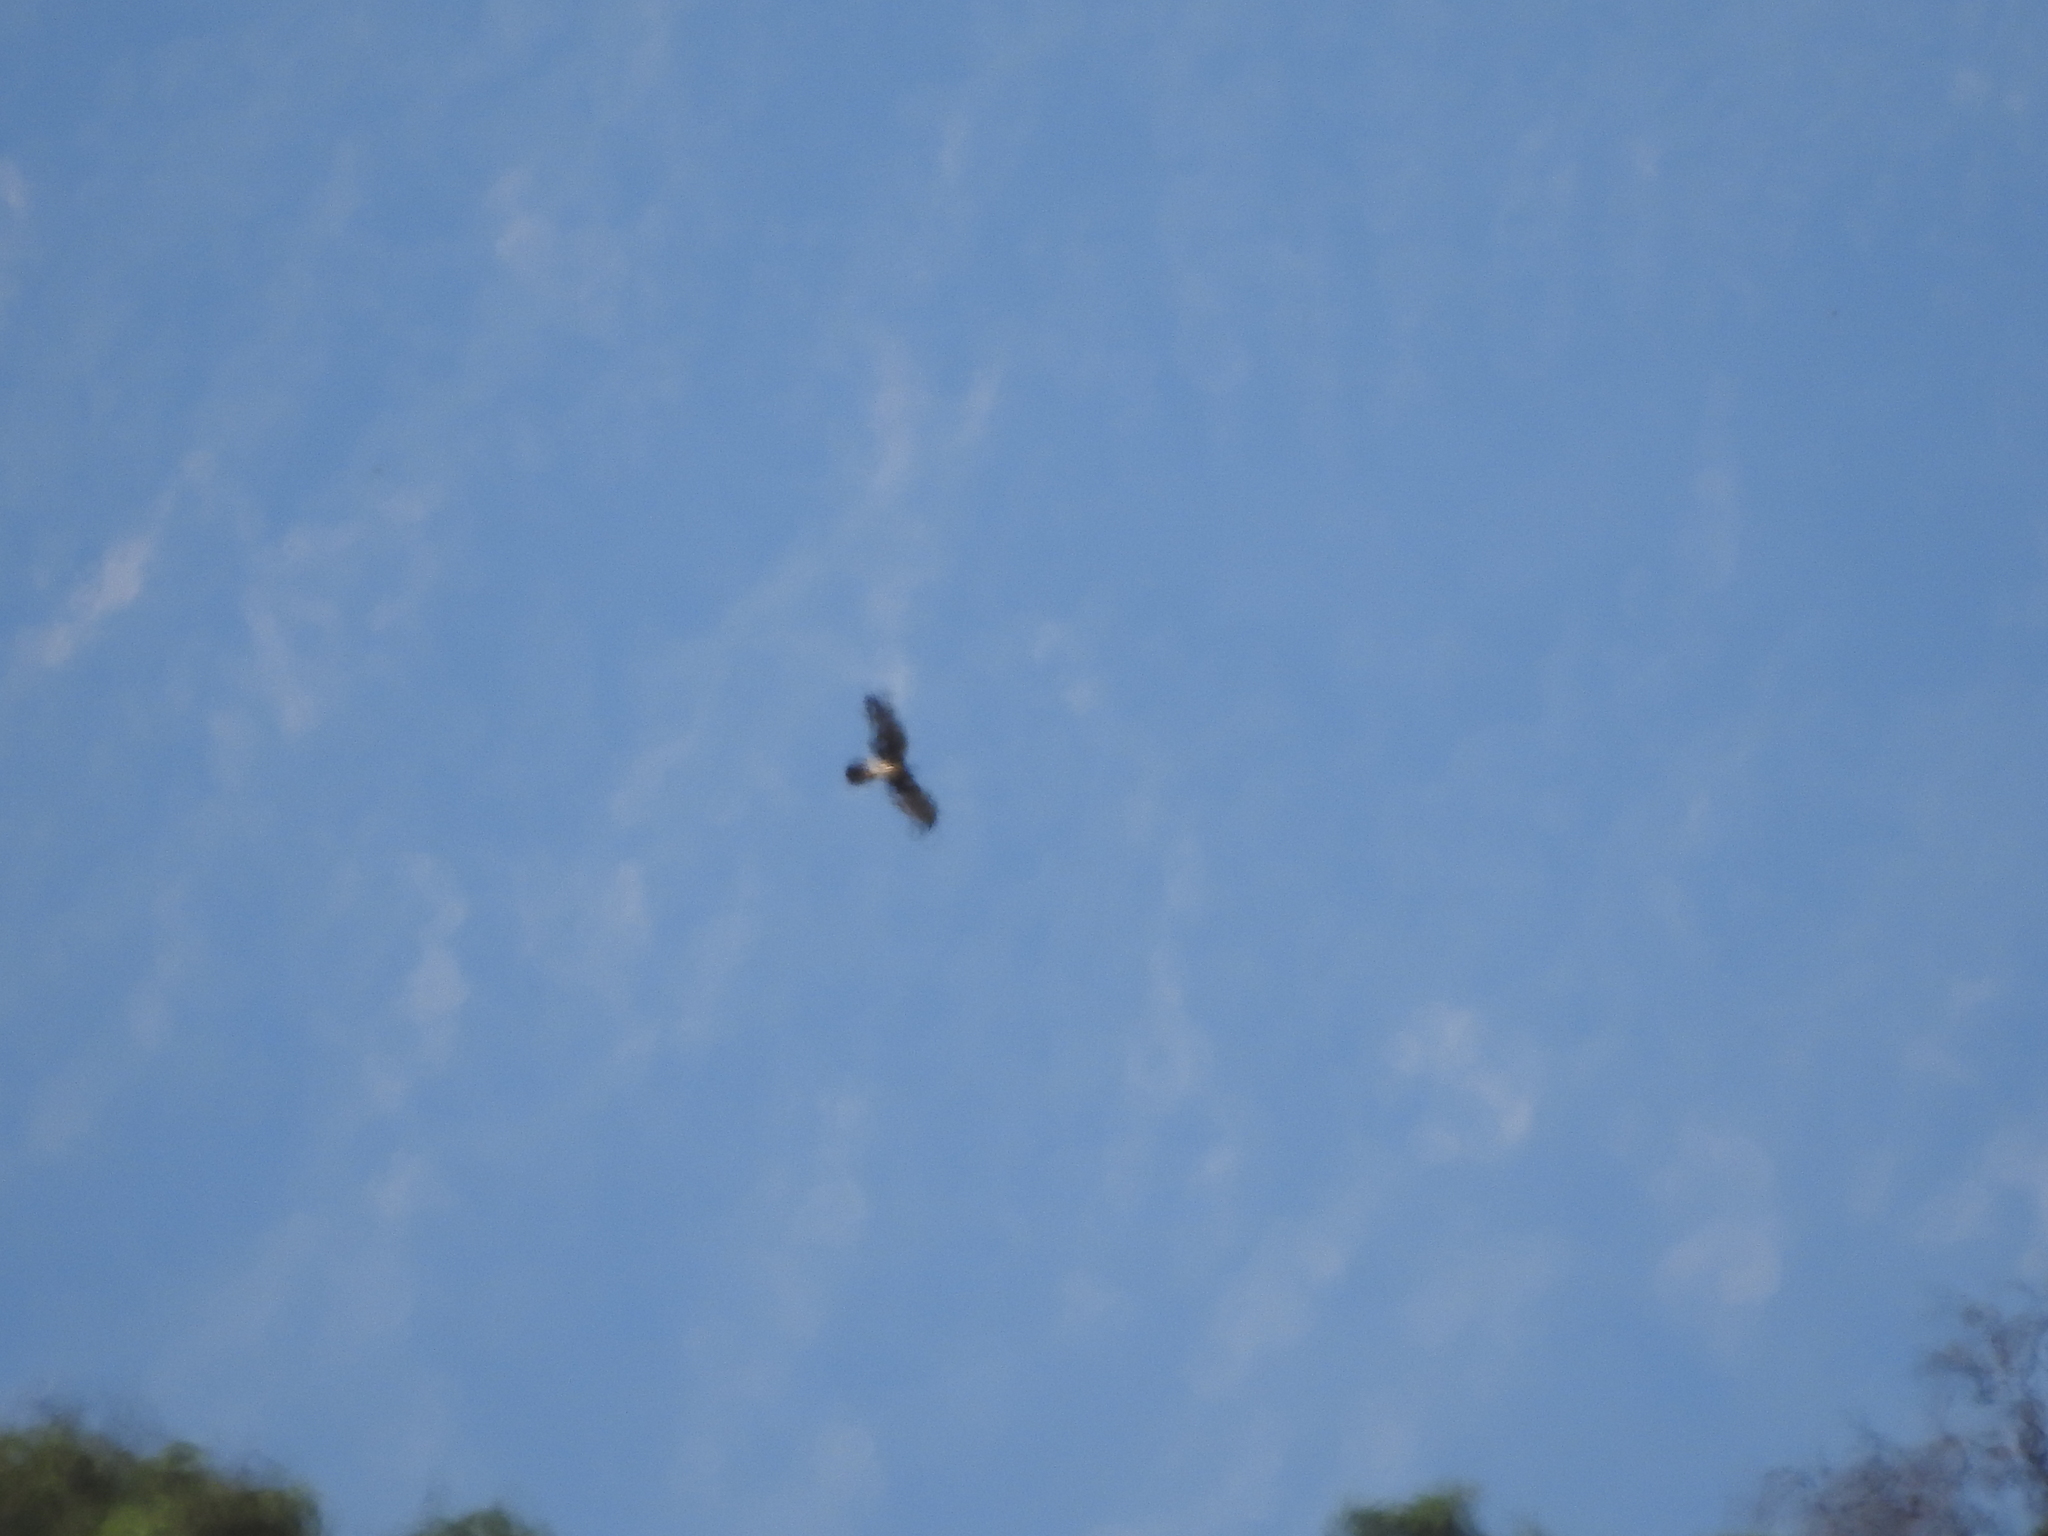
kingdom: Animalia
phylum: Chordata
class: Aves
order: Accipitriformes
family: Accipitridae
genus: Circus
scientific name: Circus cyaneus
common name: Hen harrier
